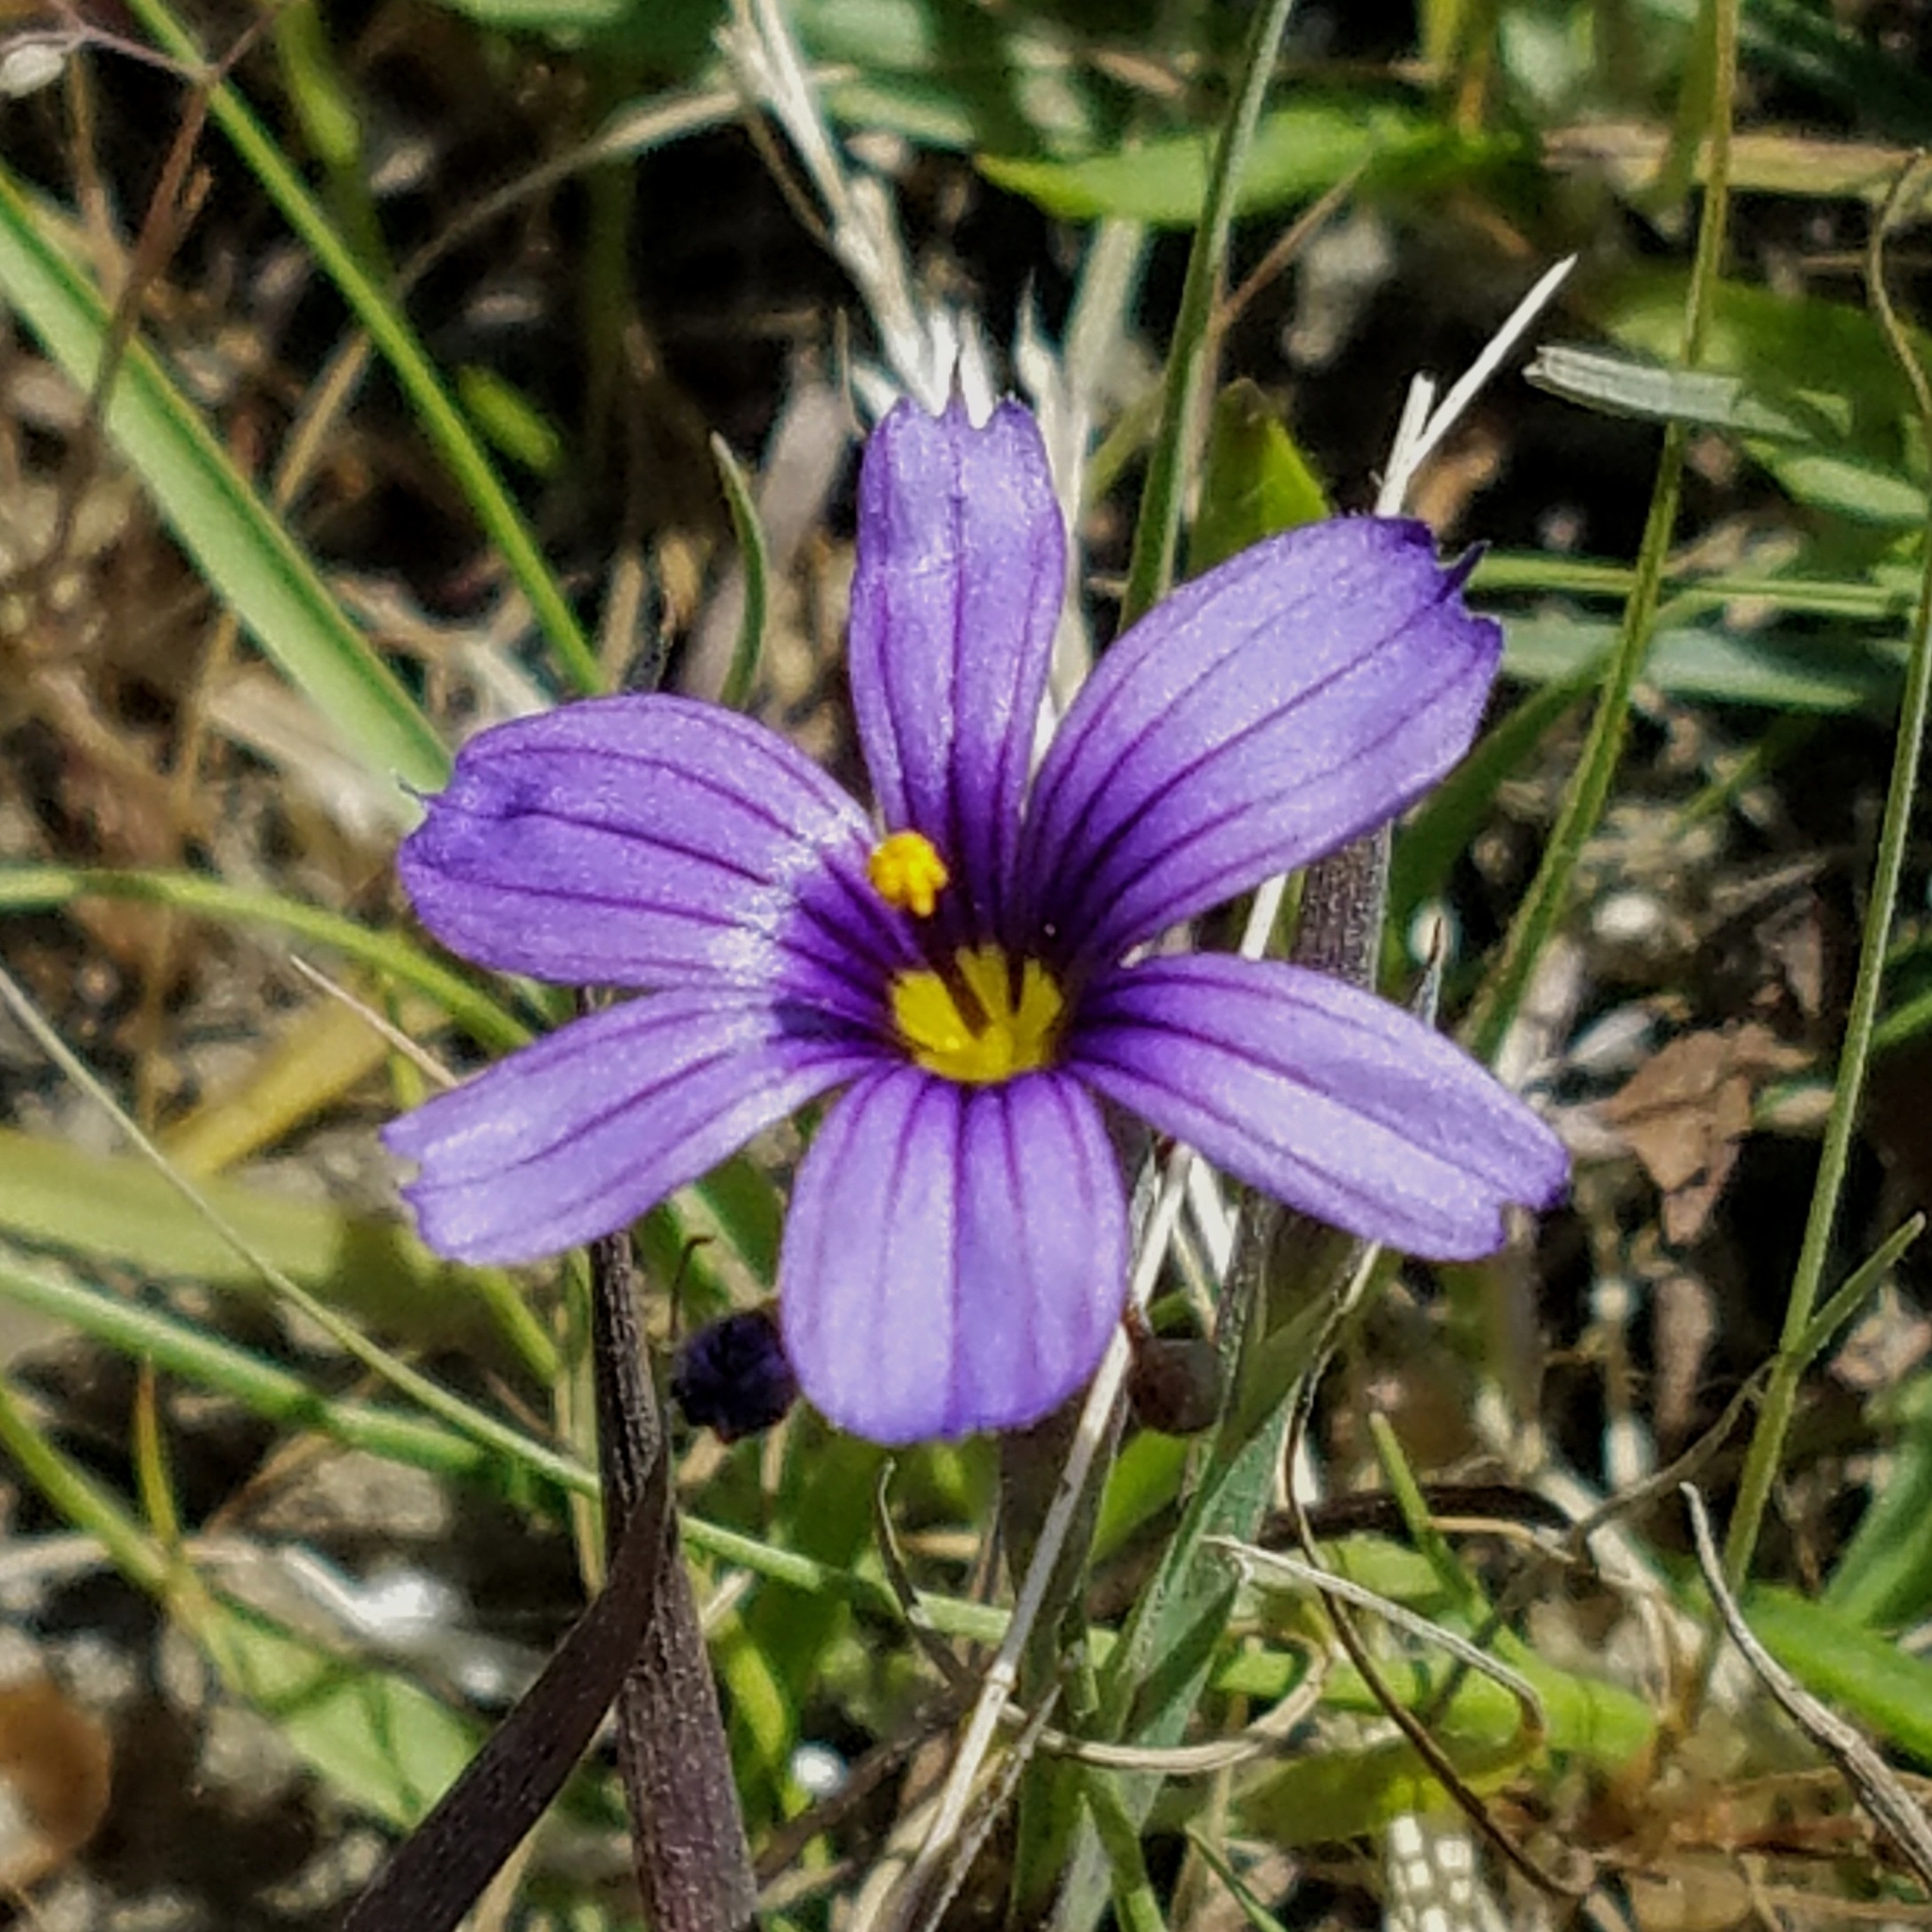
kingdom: Plantae
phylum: Tracheophyta
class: Liliopsida
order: Asparagales
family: Iridaceae
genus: Sisyrinchium
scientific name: Sisyrinchium bellum
